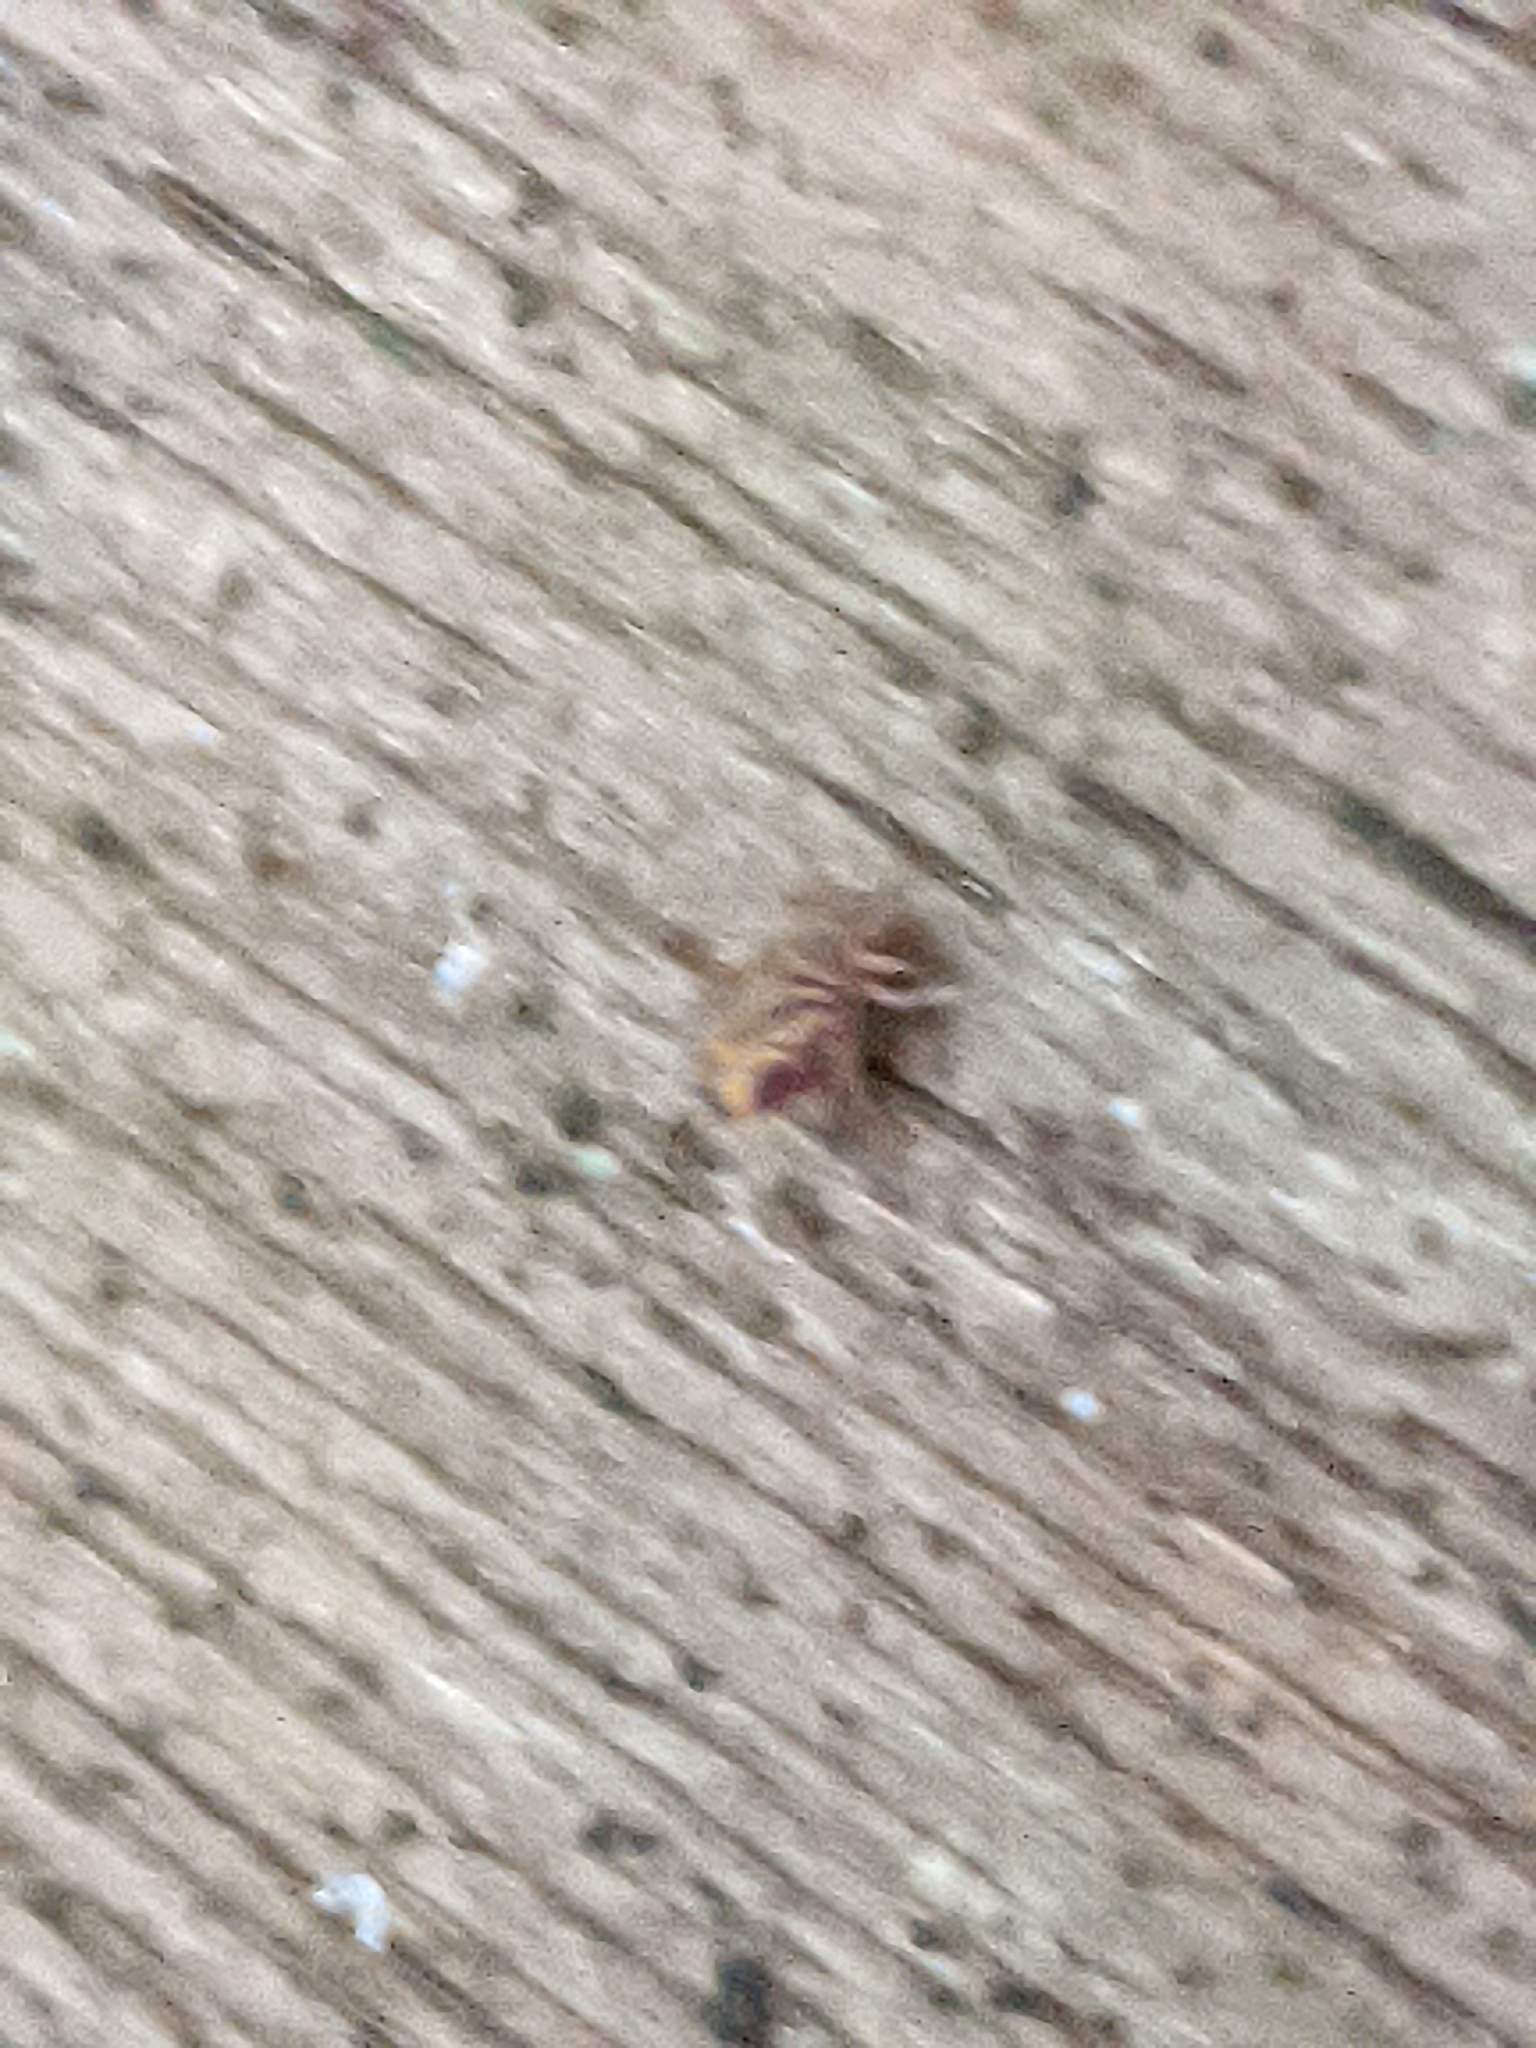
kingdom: Animalia
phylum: Arthropoda
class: Collembola
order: Symphypleona
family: Dicyrtomidae
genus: Dicyrtomina
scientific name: Dicyrtomina ornata
